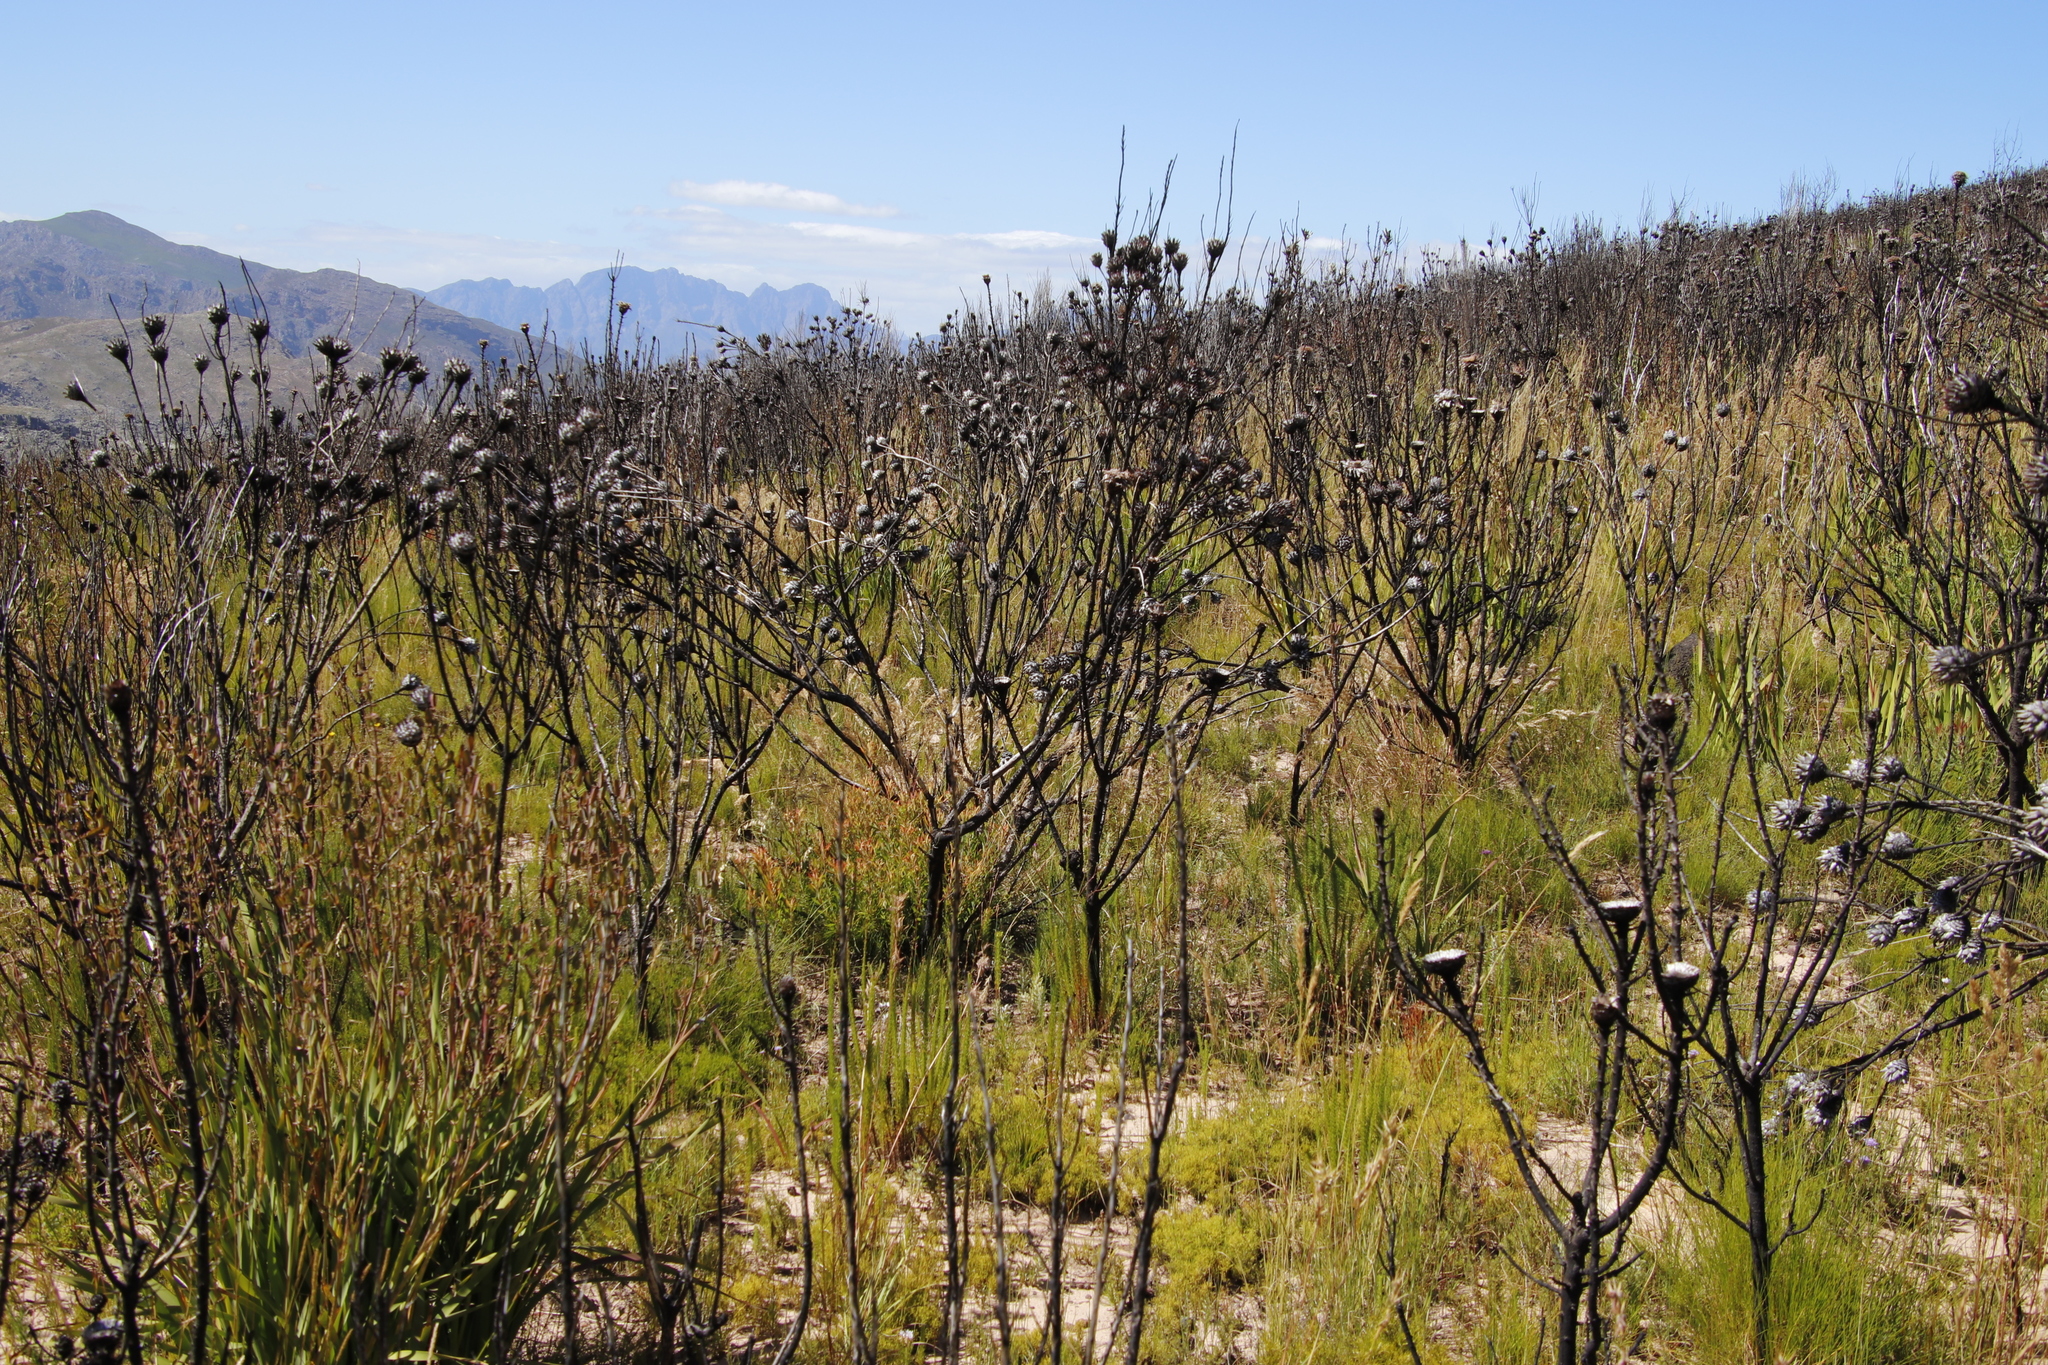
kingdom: Plantae
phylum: Tracheophyta
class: Magnoliopsida
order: Proteales
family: Proteaceae
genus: Leucadendron
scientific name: Leucadendron rubrum
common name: Spinning top
